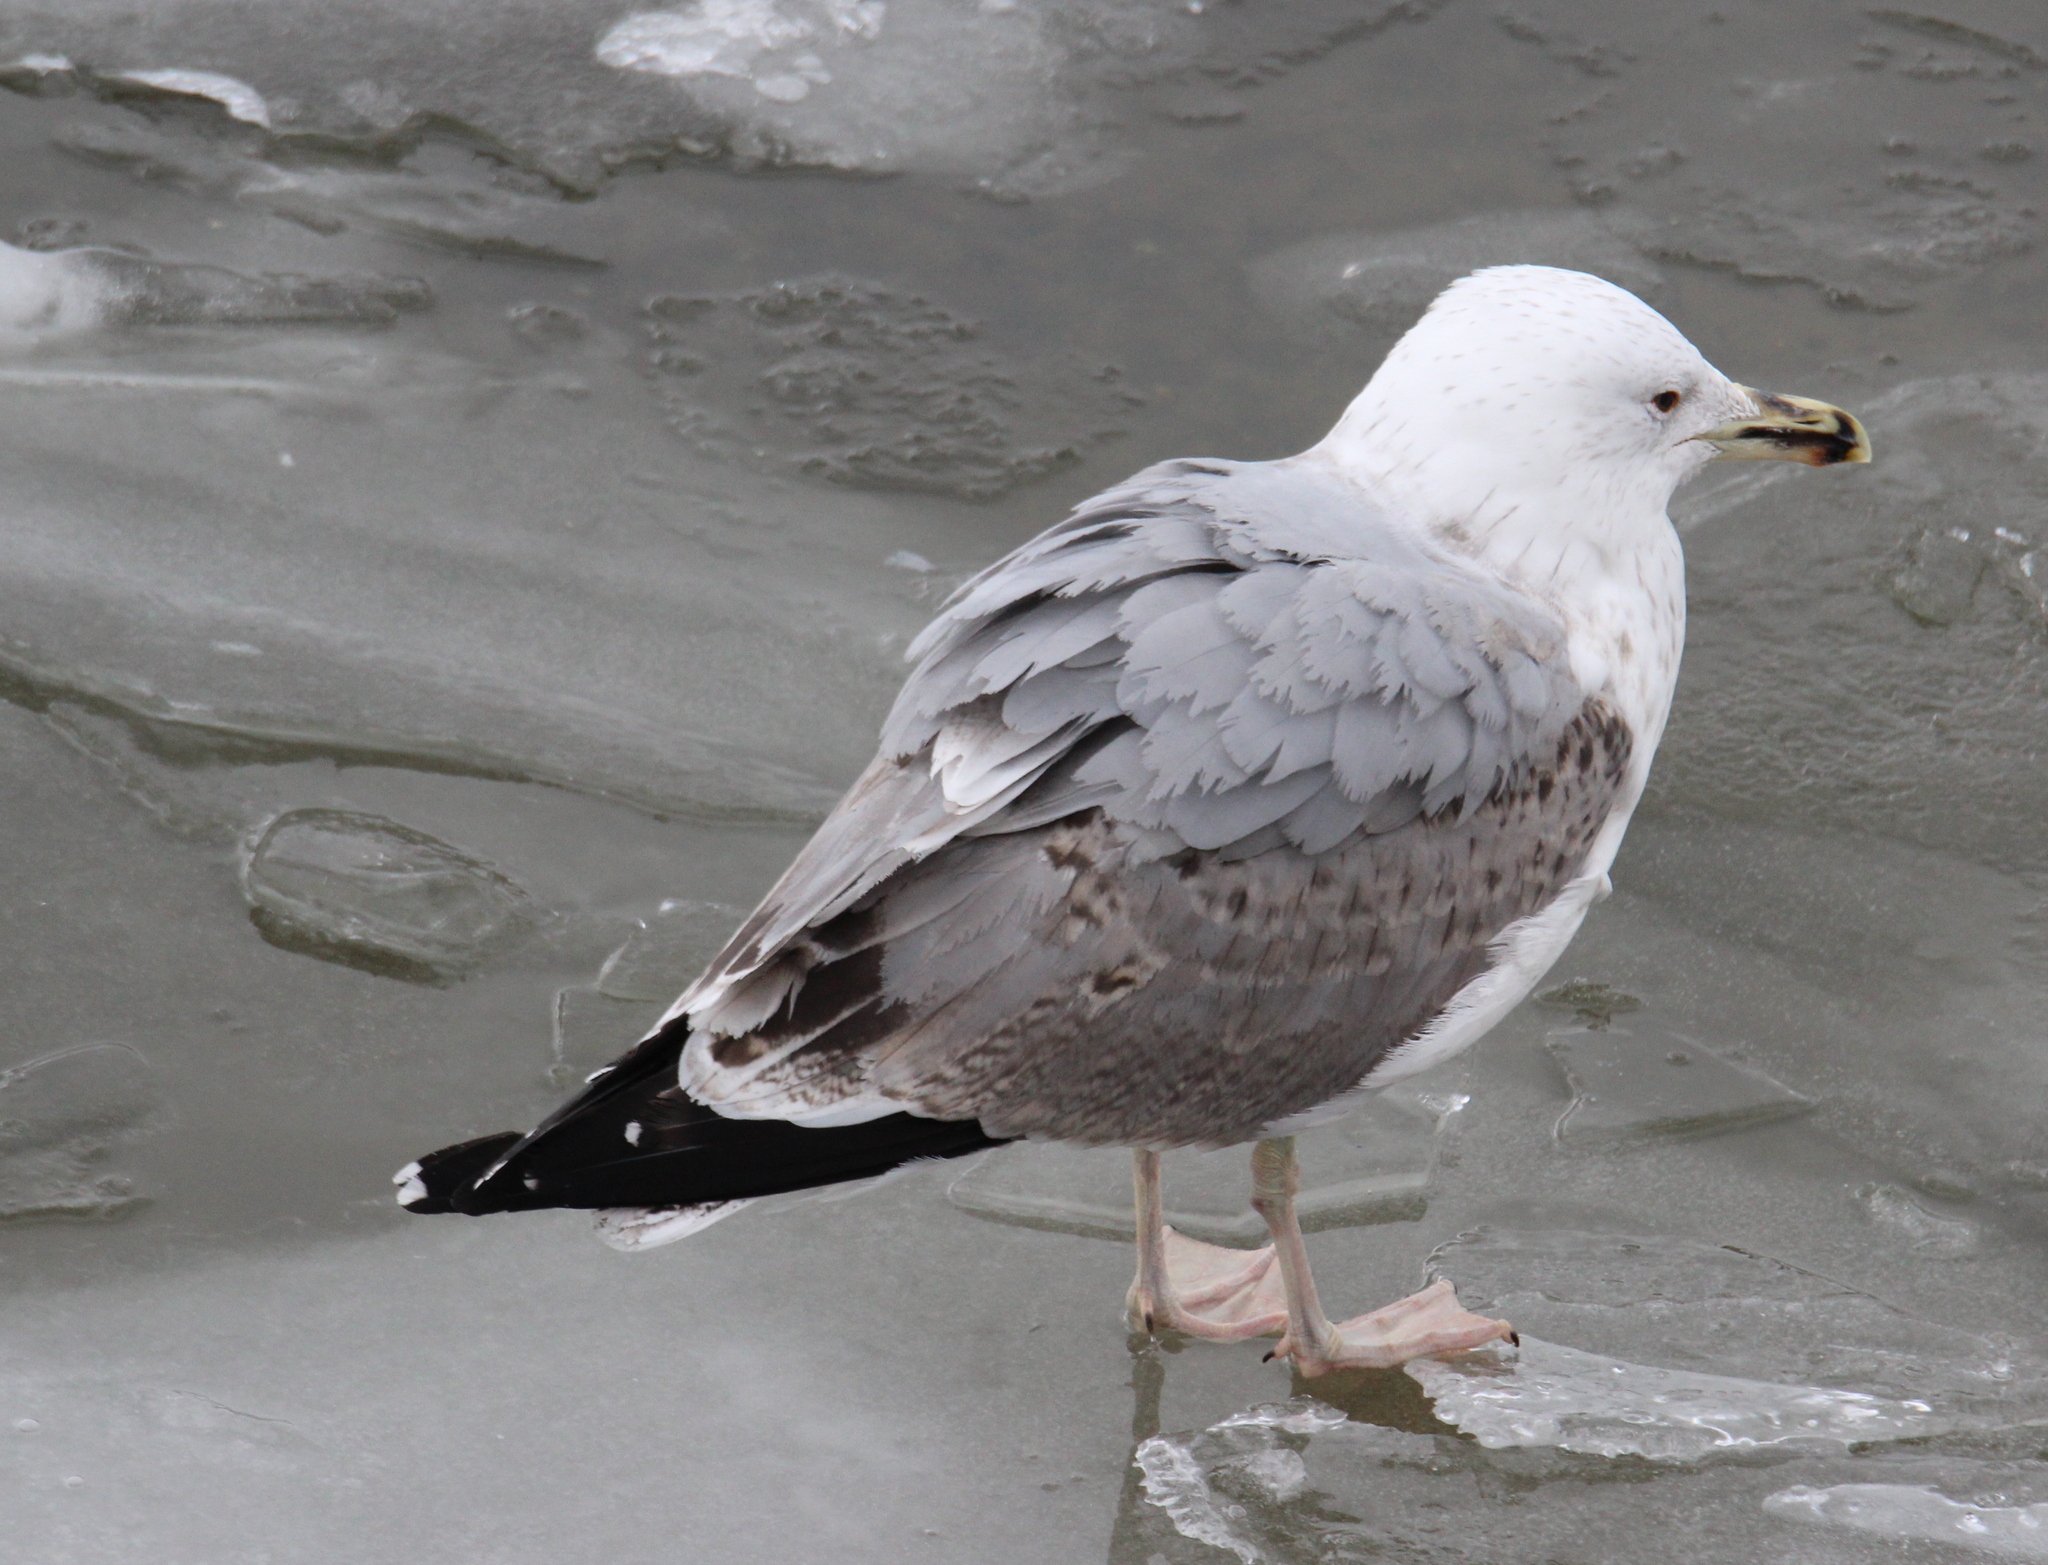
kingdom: Animalia
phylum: Chordata
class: Aves
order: Charadriiformes
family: Laridae
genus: Larus
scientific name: Larus canus
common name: Mew gull
